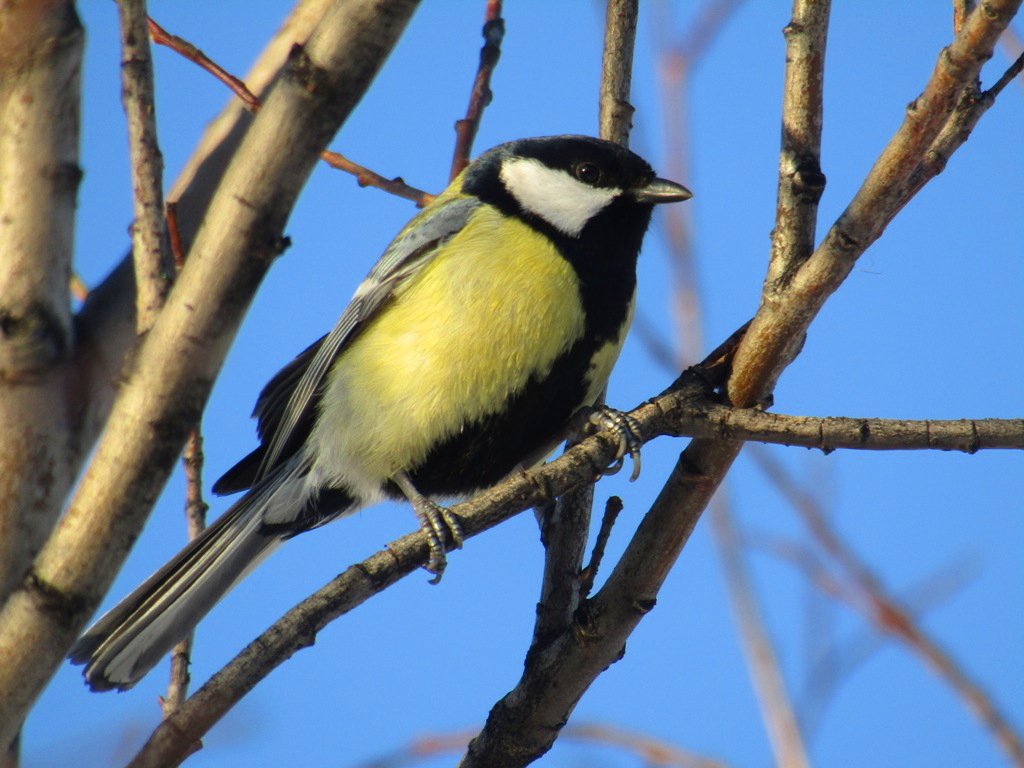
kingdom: Animalia
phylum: Chordata
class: Aves
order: Passeriformes
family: Paridae
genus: Parus
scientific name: Parus major
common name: Great tit
